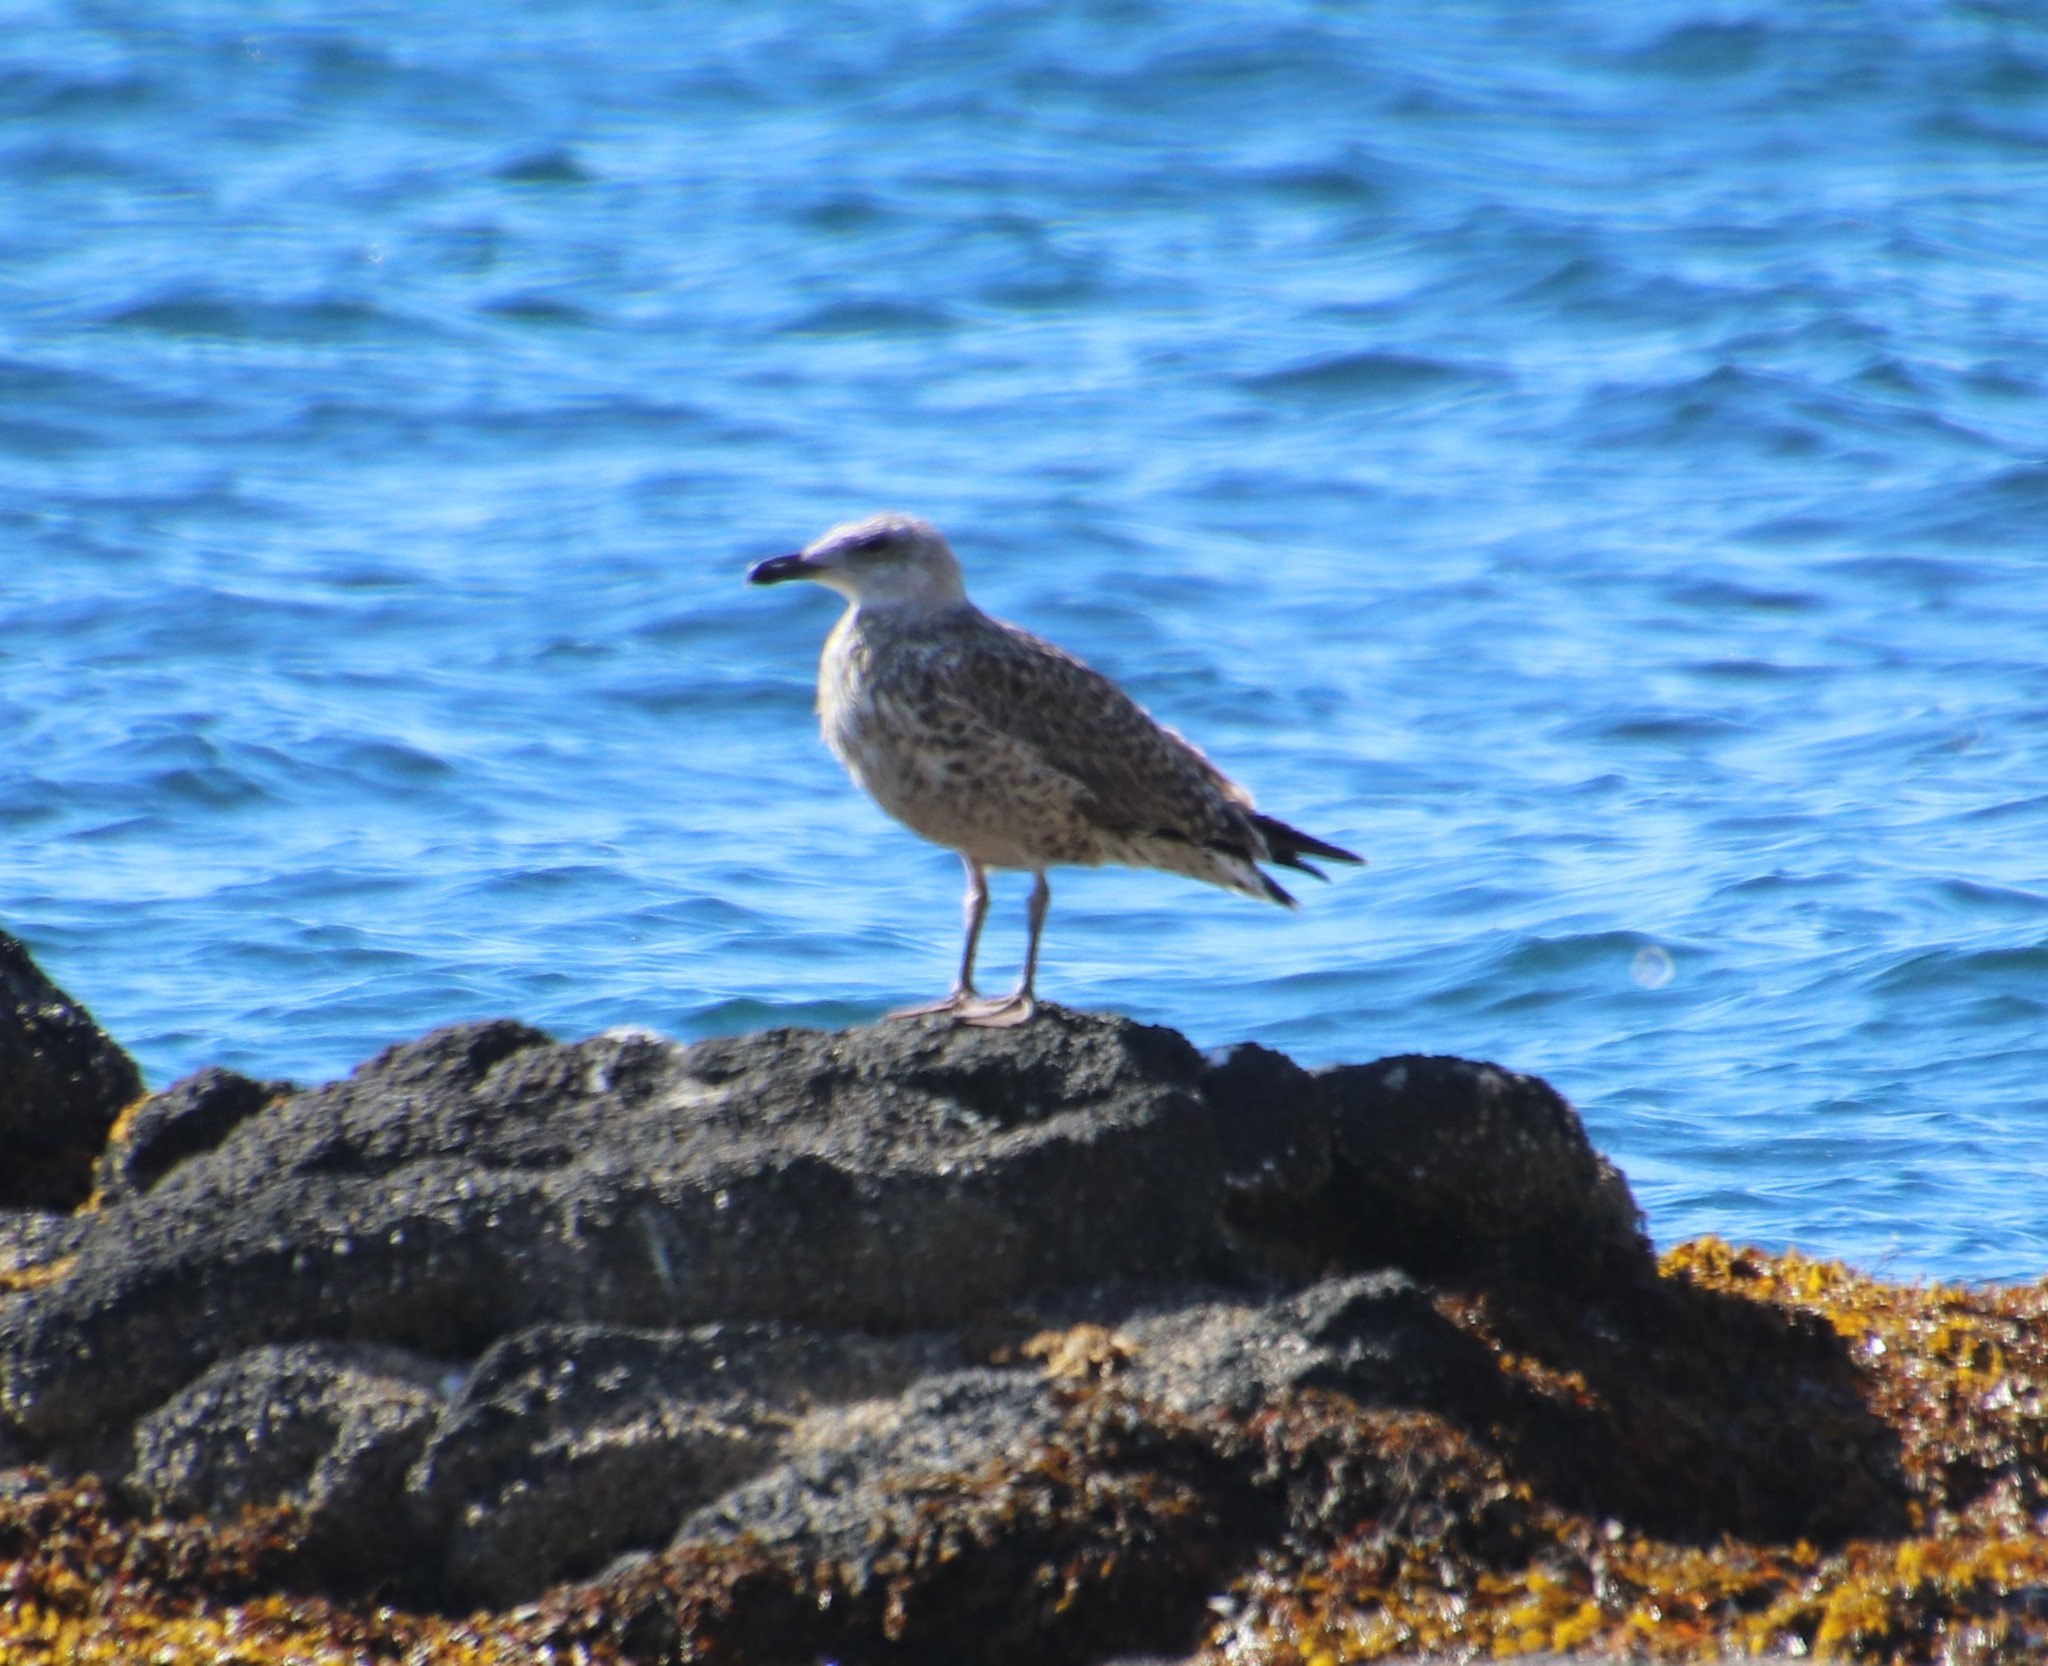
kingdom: Animalia
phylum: Chordata
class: Aves
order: Charadriiformes
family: Laridae
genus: Larus
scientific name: Larus argentatus
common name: Herring gull
